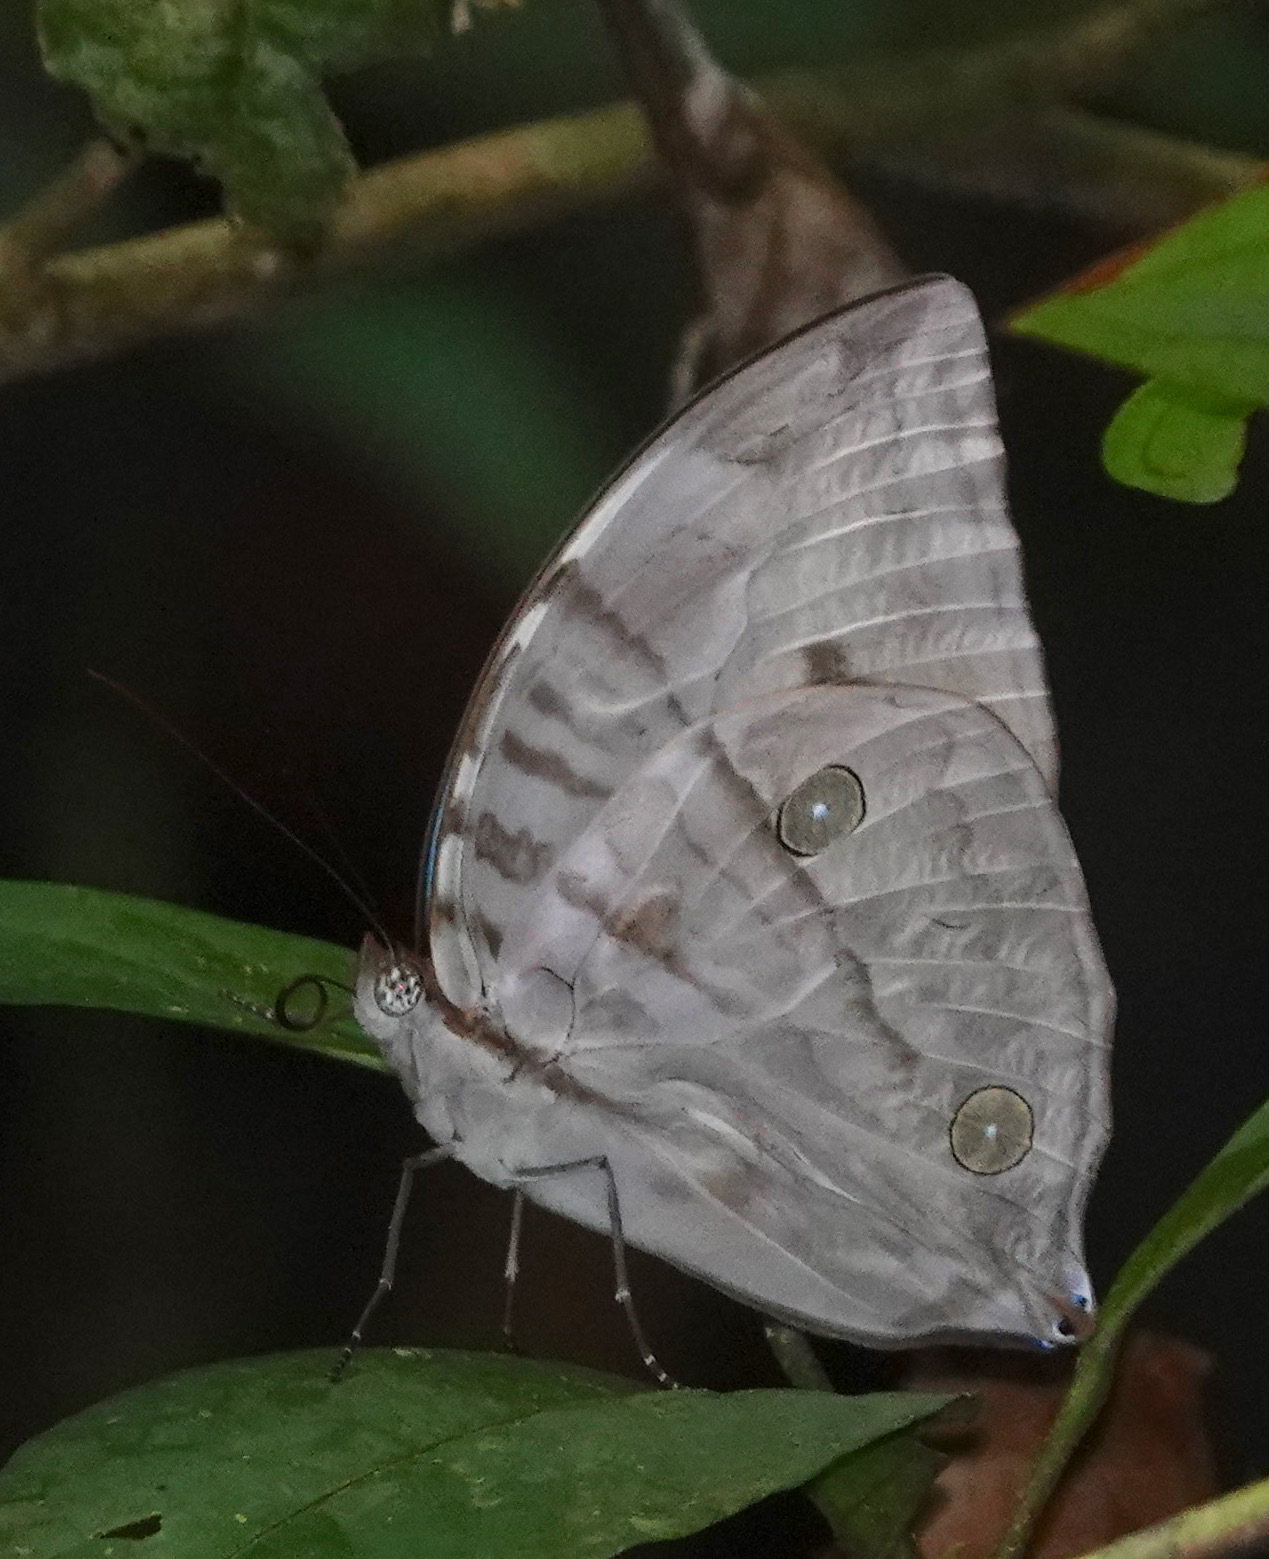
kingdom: Animalia
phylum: Arthropoda
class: Insecta
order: Lepidoptera
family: Nymphalidae
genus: Zeuxidia
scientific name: Zeuxidia aurelia
